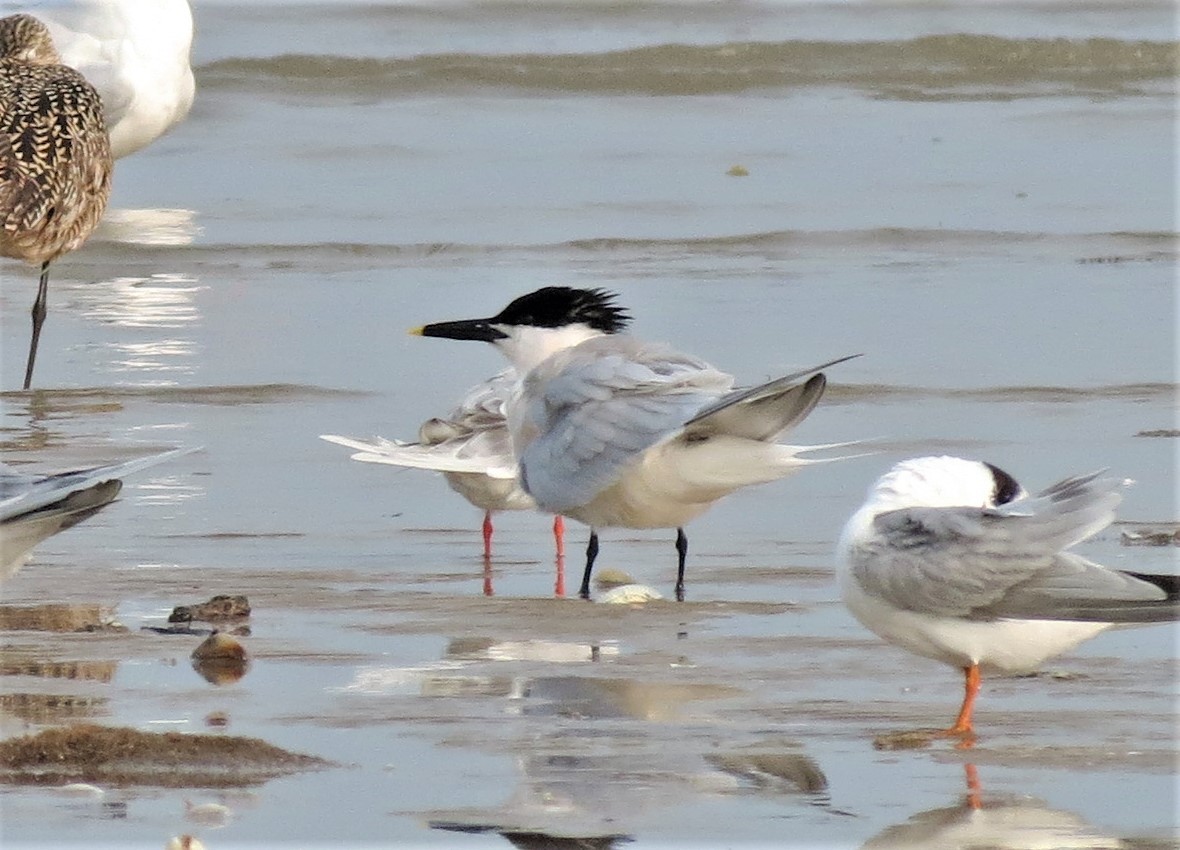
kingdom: Animalia
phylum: Chordata
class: Aves
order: Charadriiformes
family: Laridae
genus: Thalasseus
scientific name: Thalasseus sandvicensis
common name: Sandwich tern
